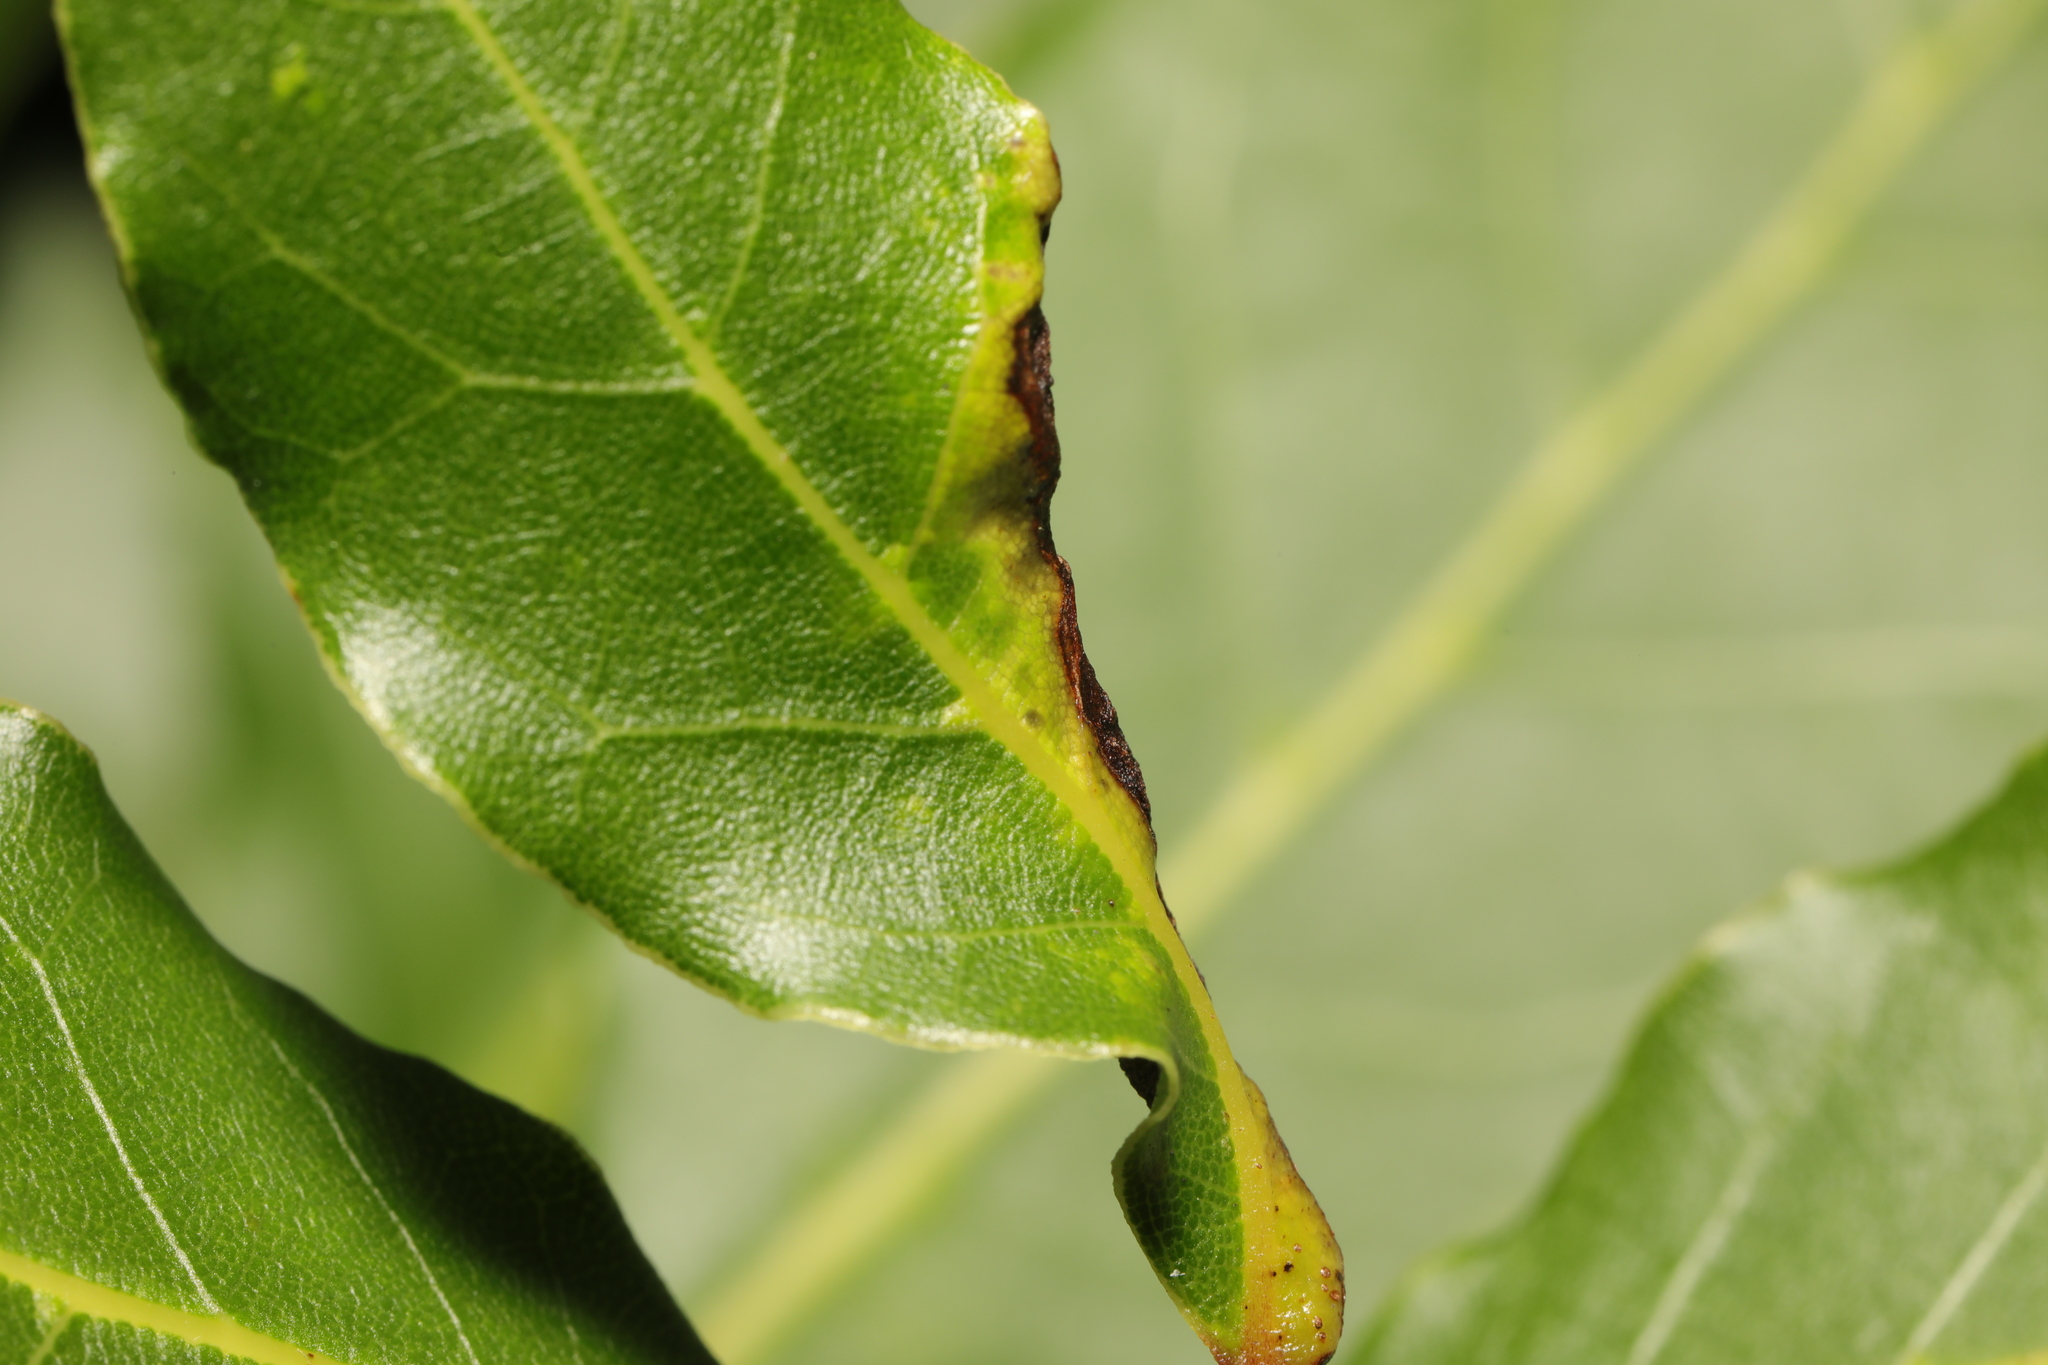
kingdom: Animalia
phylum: Arthropoda
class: Insecta
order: Hemiptera
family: Triozidae
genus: Lauritrioza
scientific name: Lauritrioza alacris
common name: Laurel psyllid
